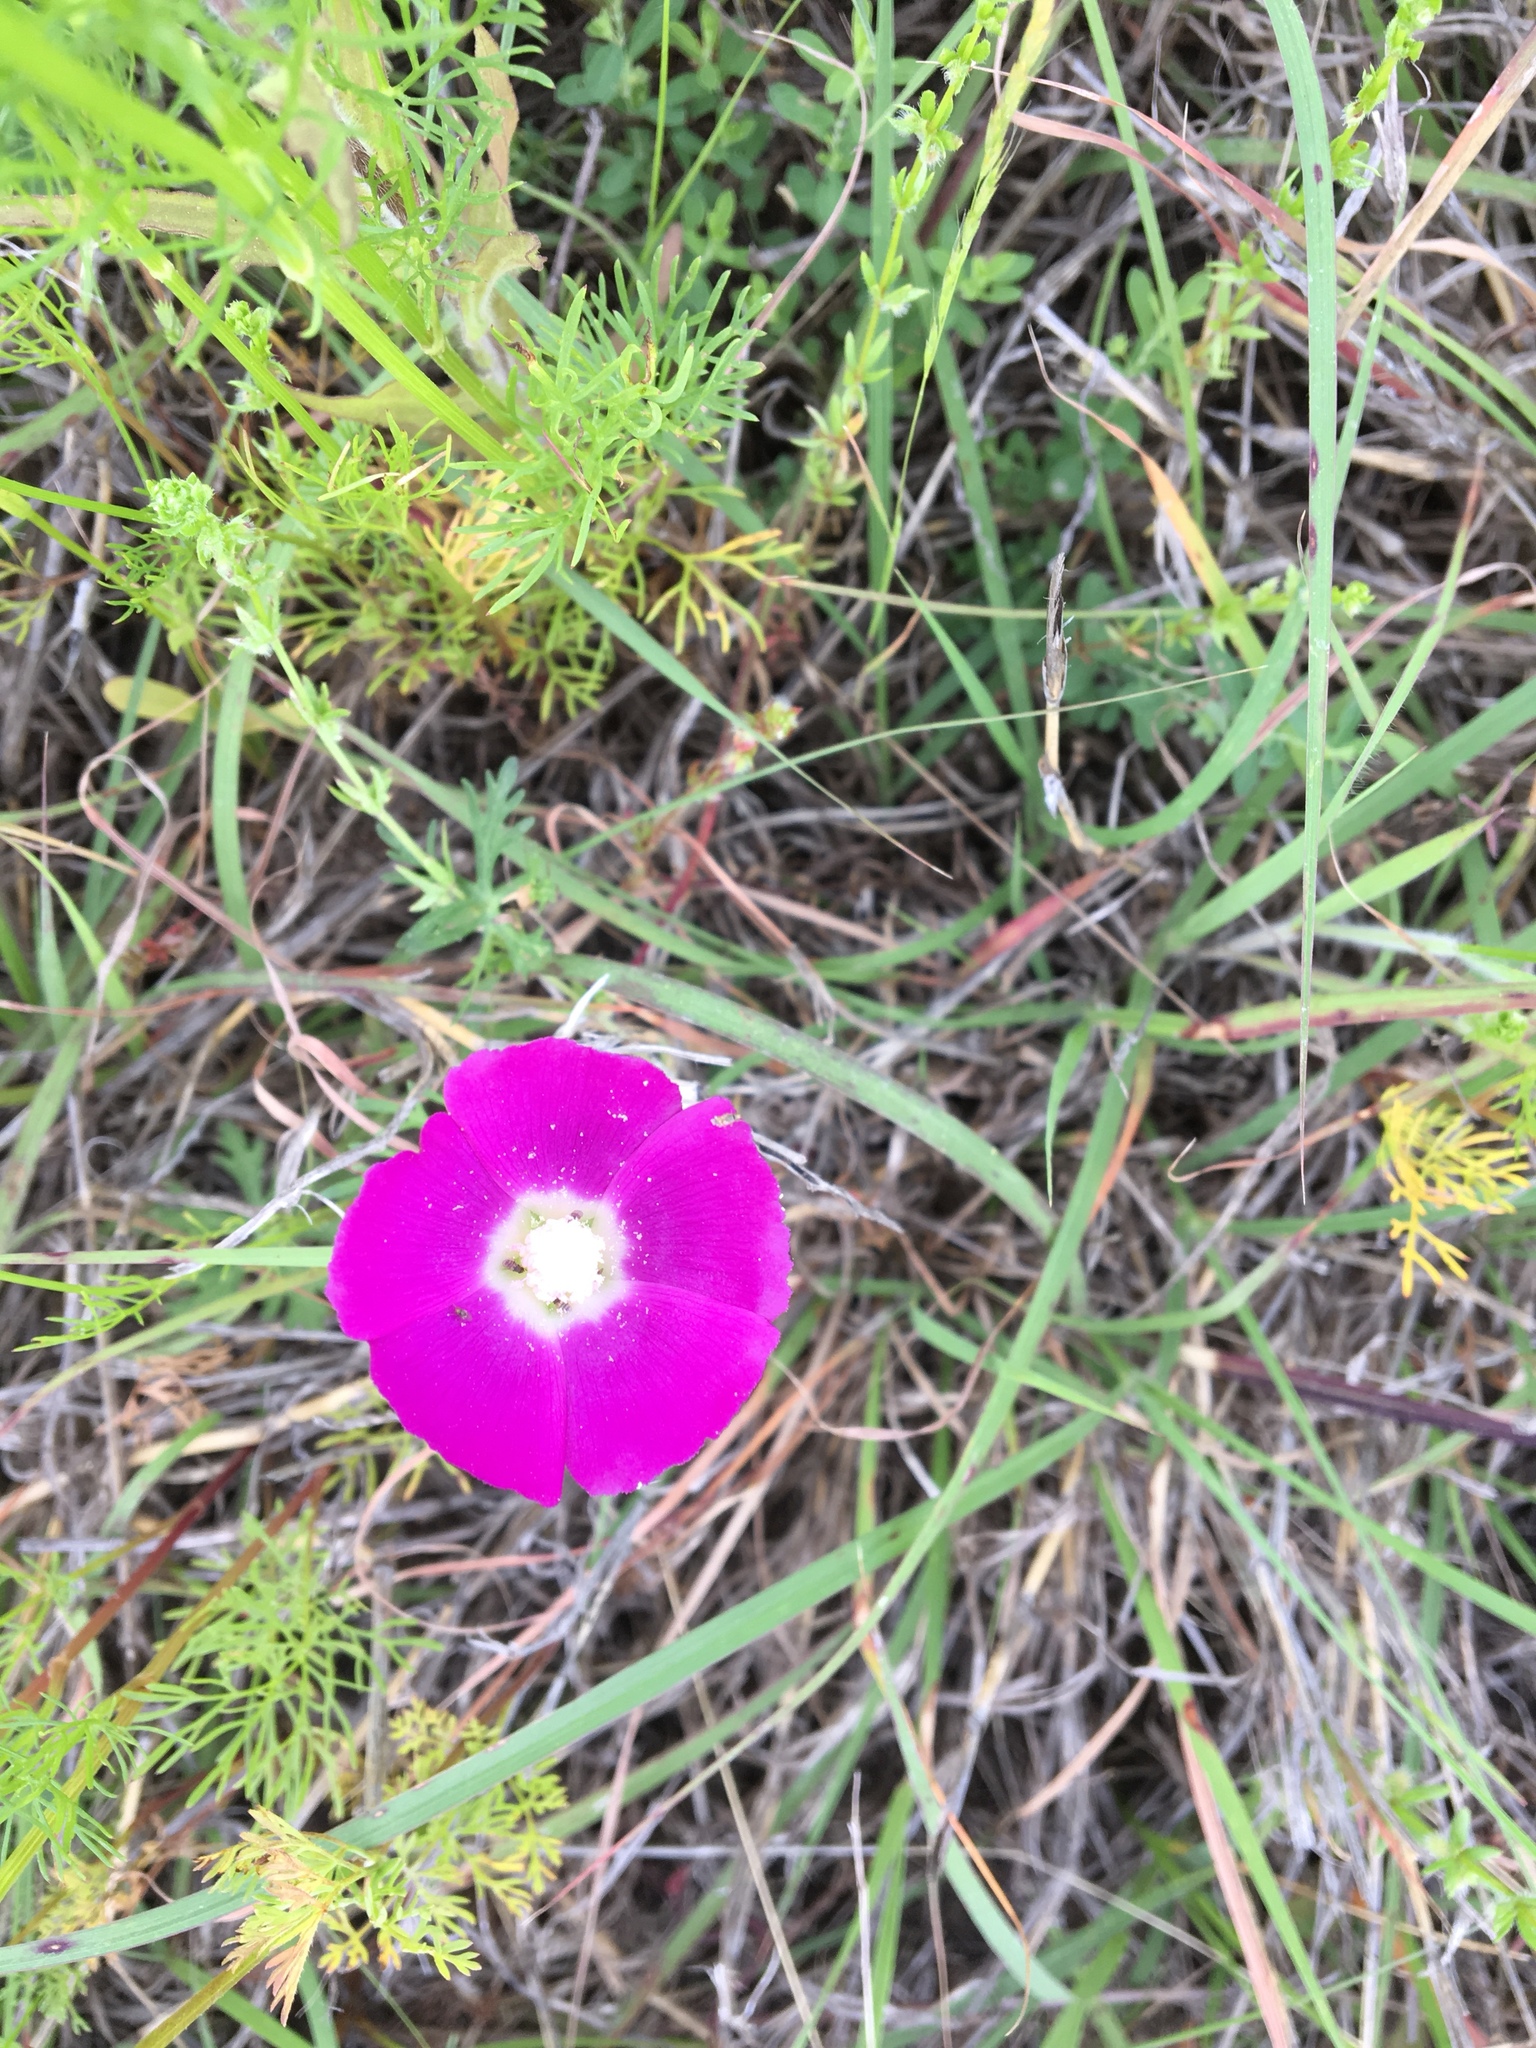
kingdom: Plantae
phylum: Tracheophyta
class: Magnoliopsida
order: Malvales
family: Malvaceae
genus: Callirhoe
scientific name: Callirhoe involucrata
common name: Purple poppy-mallow
